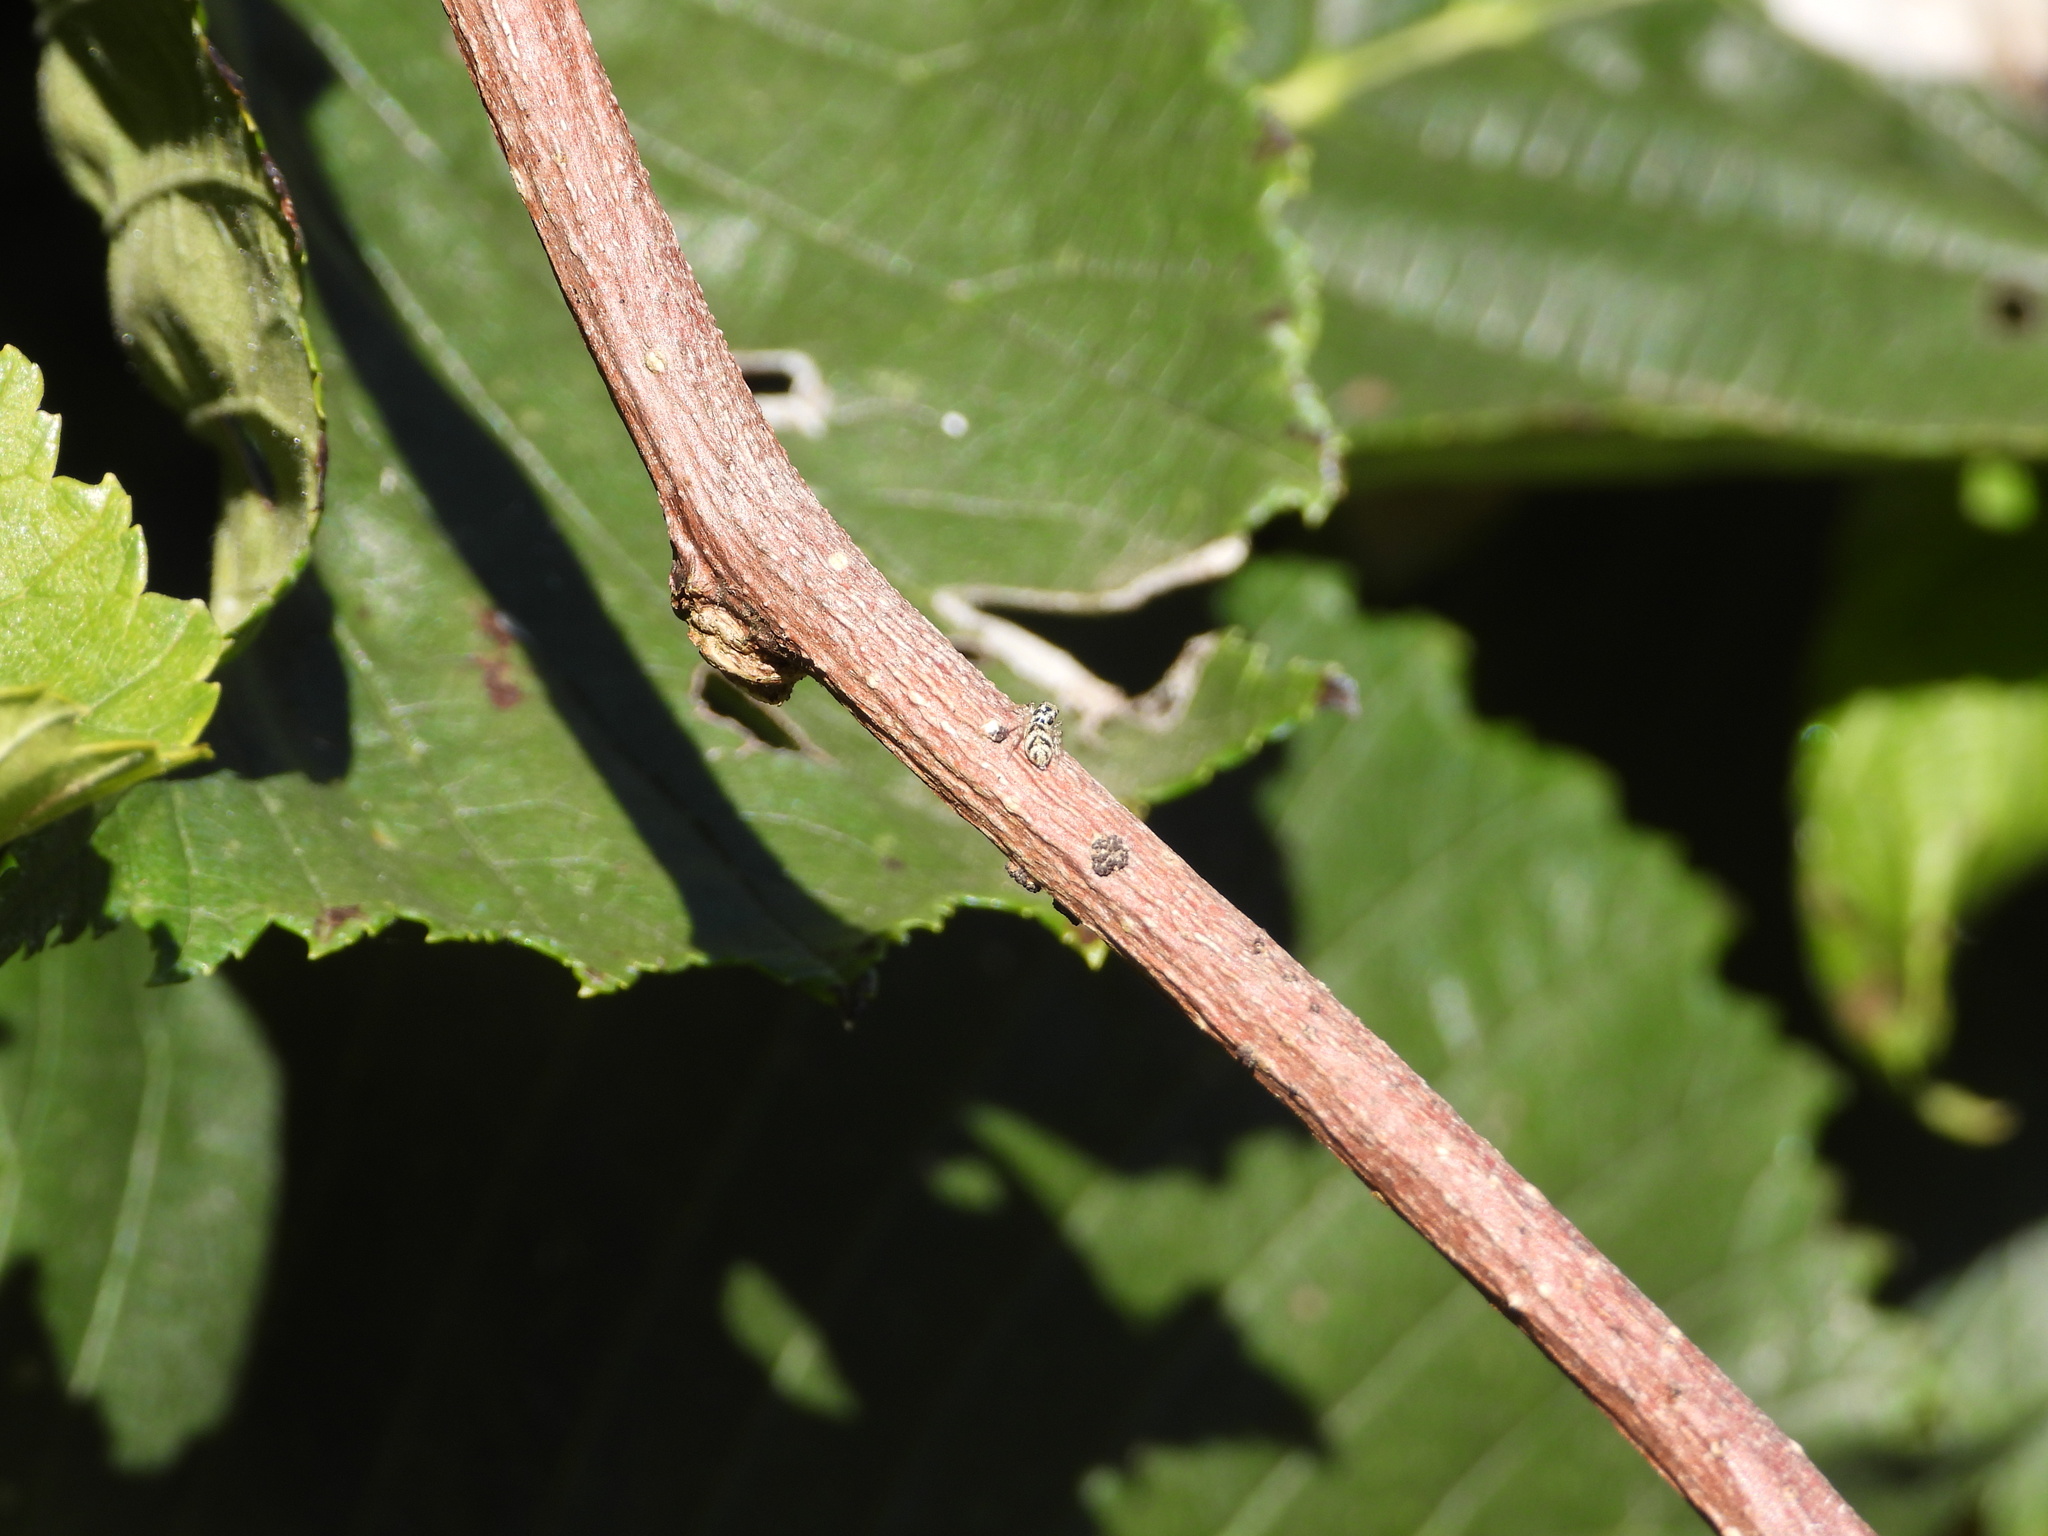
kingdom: Animalia
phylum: Arthropoda
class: Arachnida
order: Araneae
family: Salticidae
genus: Salticus
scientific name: Salticus scenicus
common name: Zebra jumper
